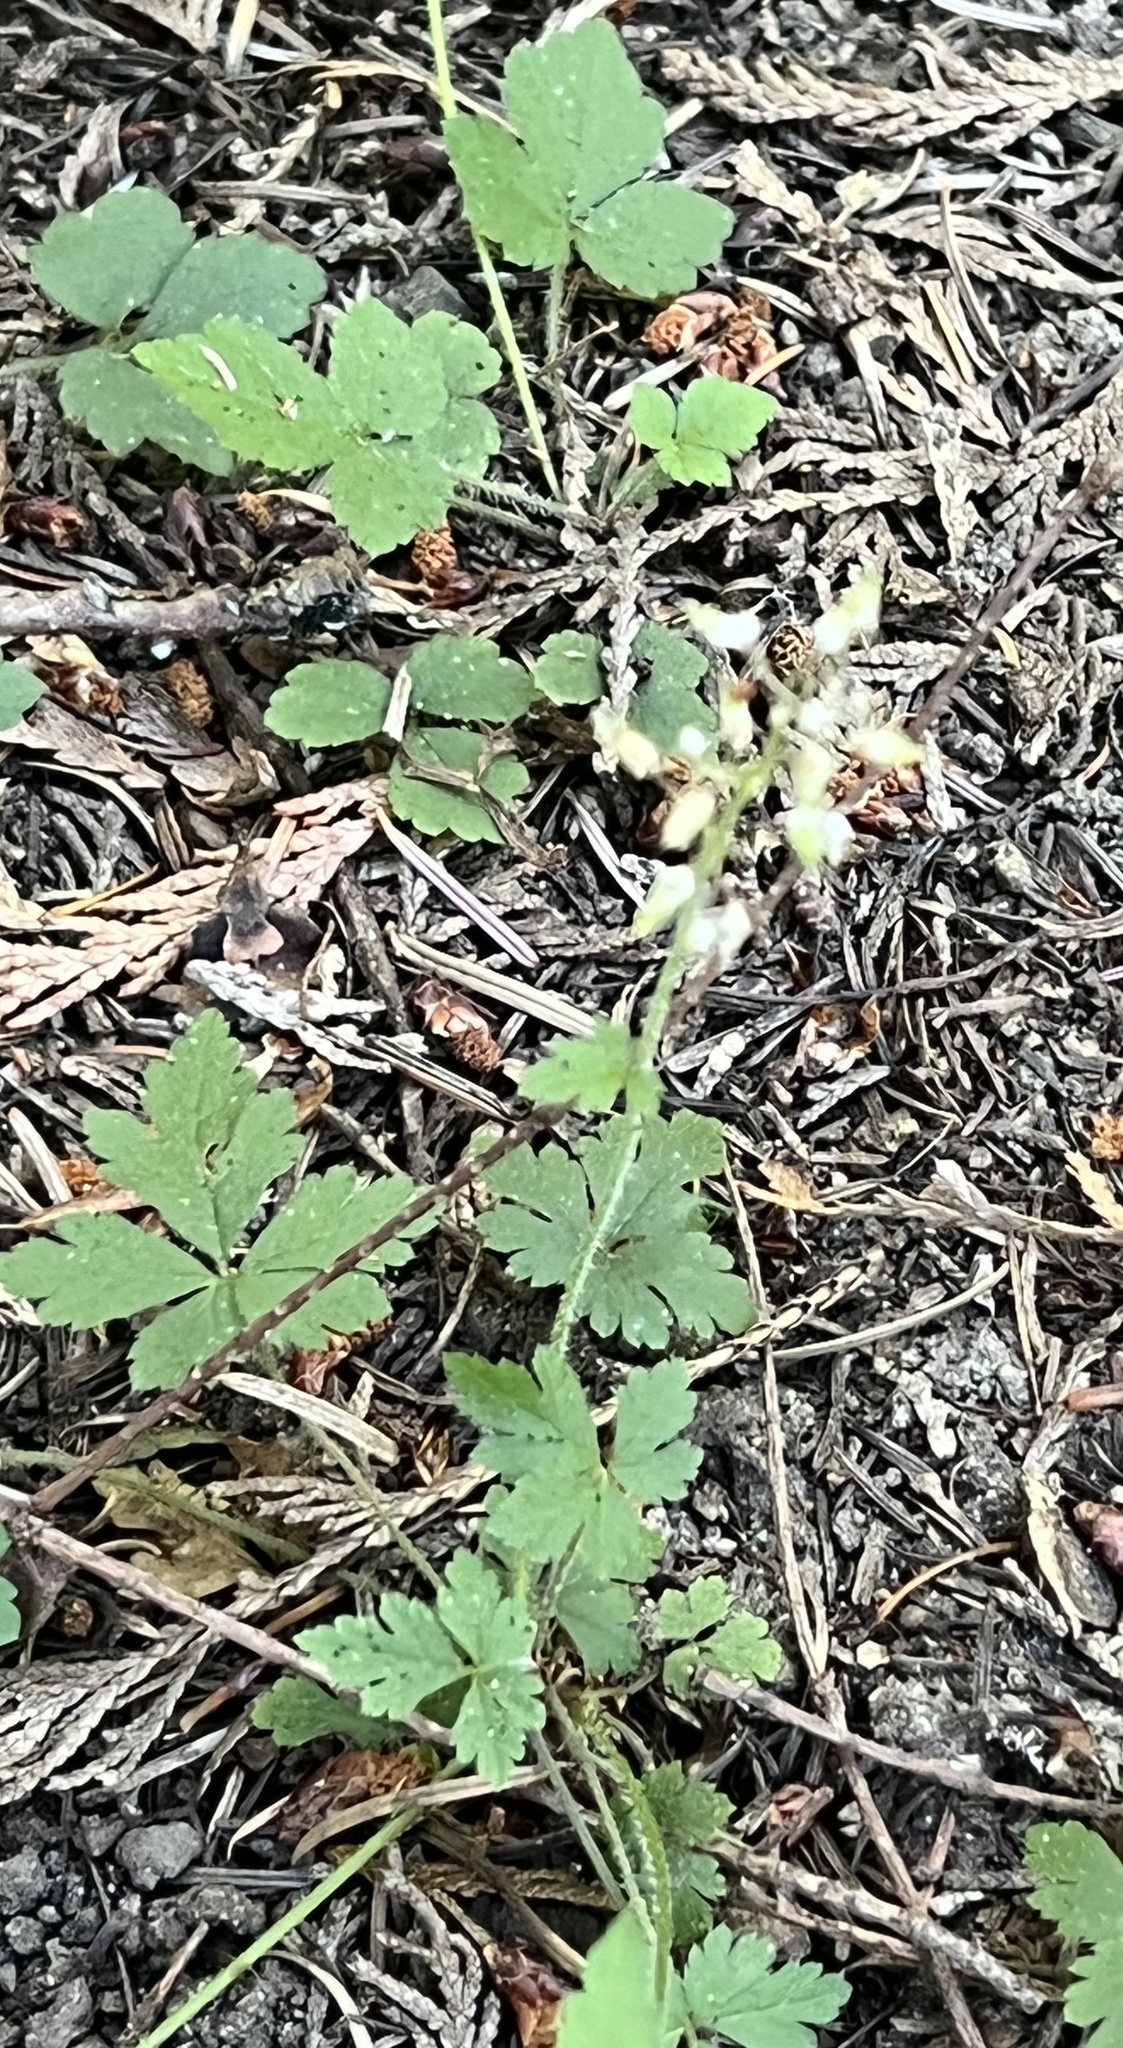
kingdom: Plantae
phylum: Tracheophyta
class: Magnoliopsida
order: Saxifragales
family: Saxifragaceae
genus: Tiarella
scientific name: Tiarella trifoliata
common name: Sugar-scoop
